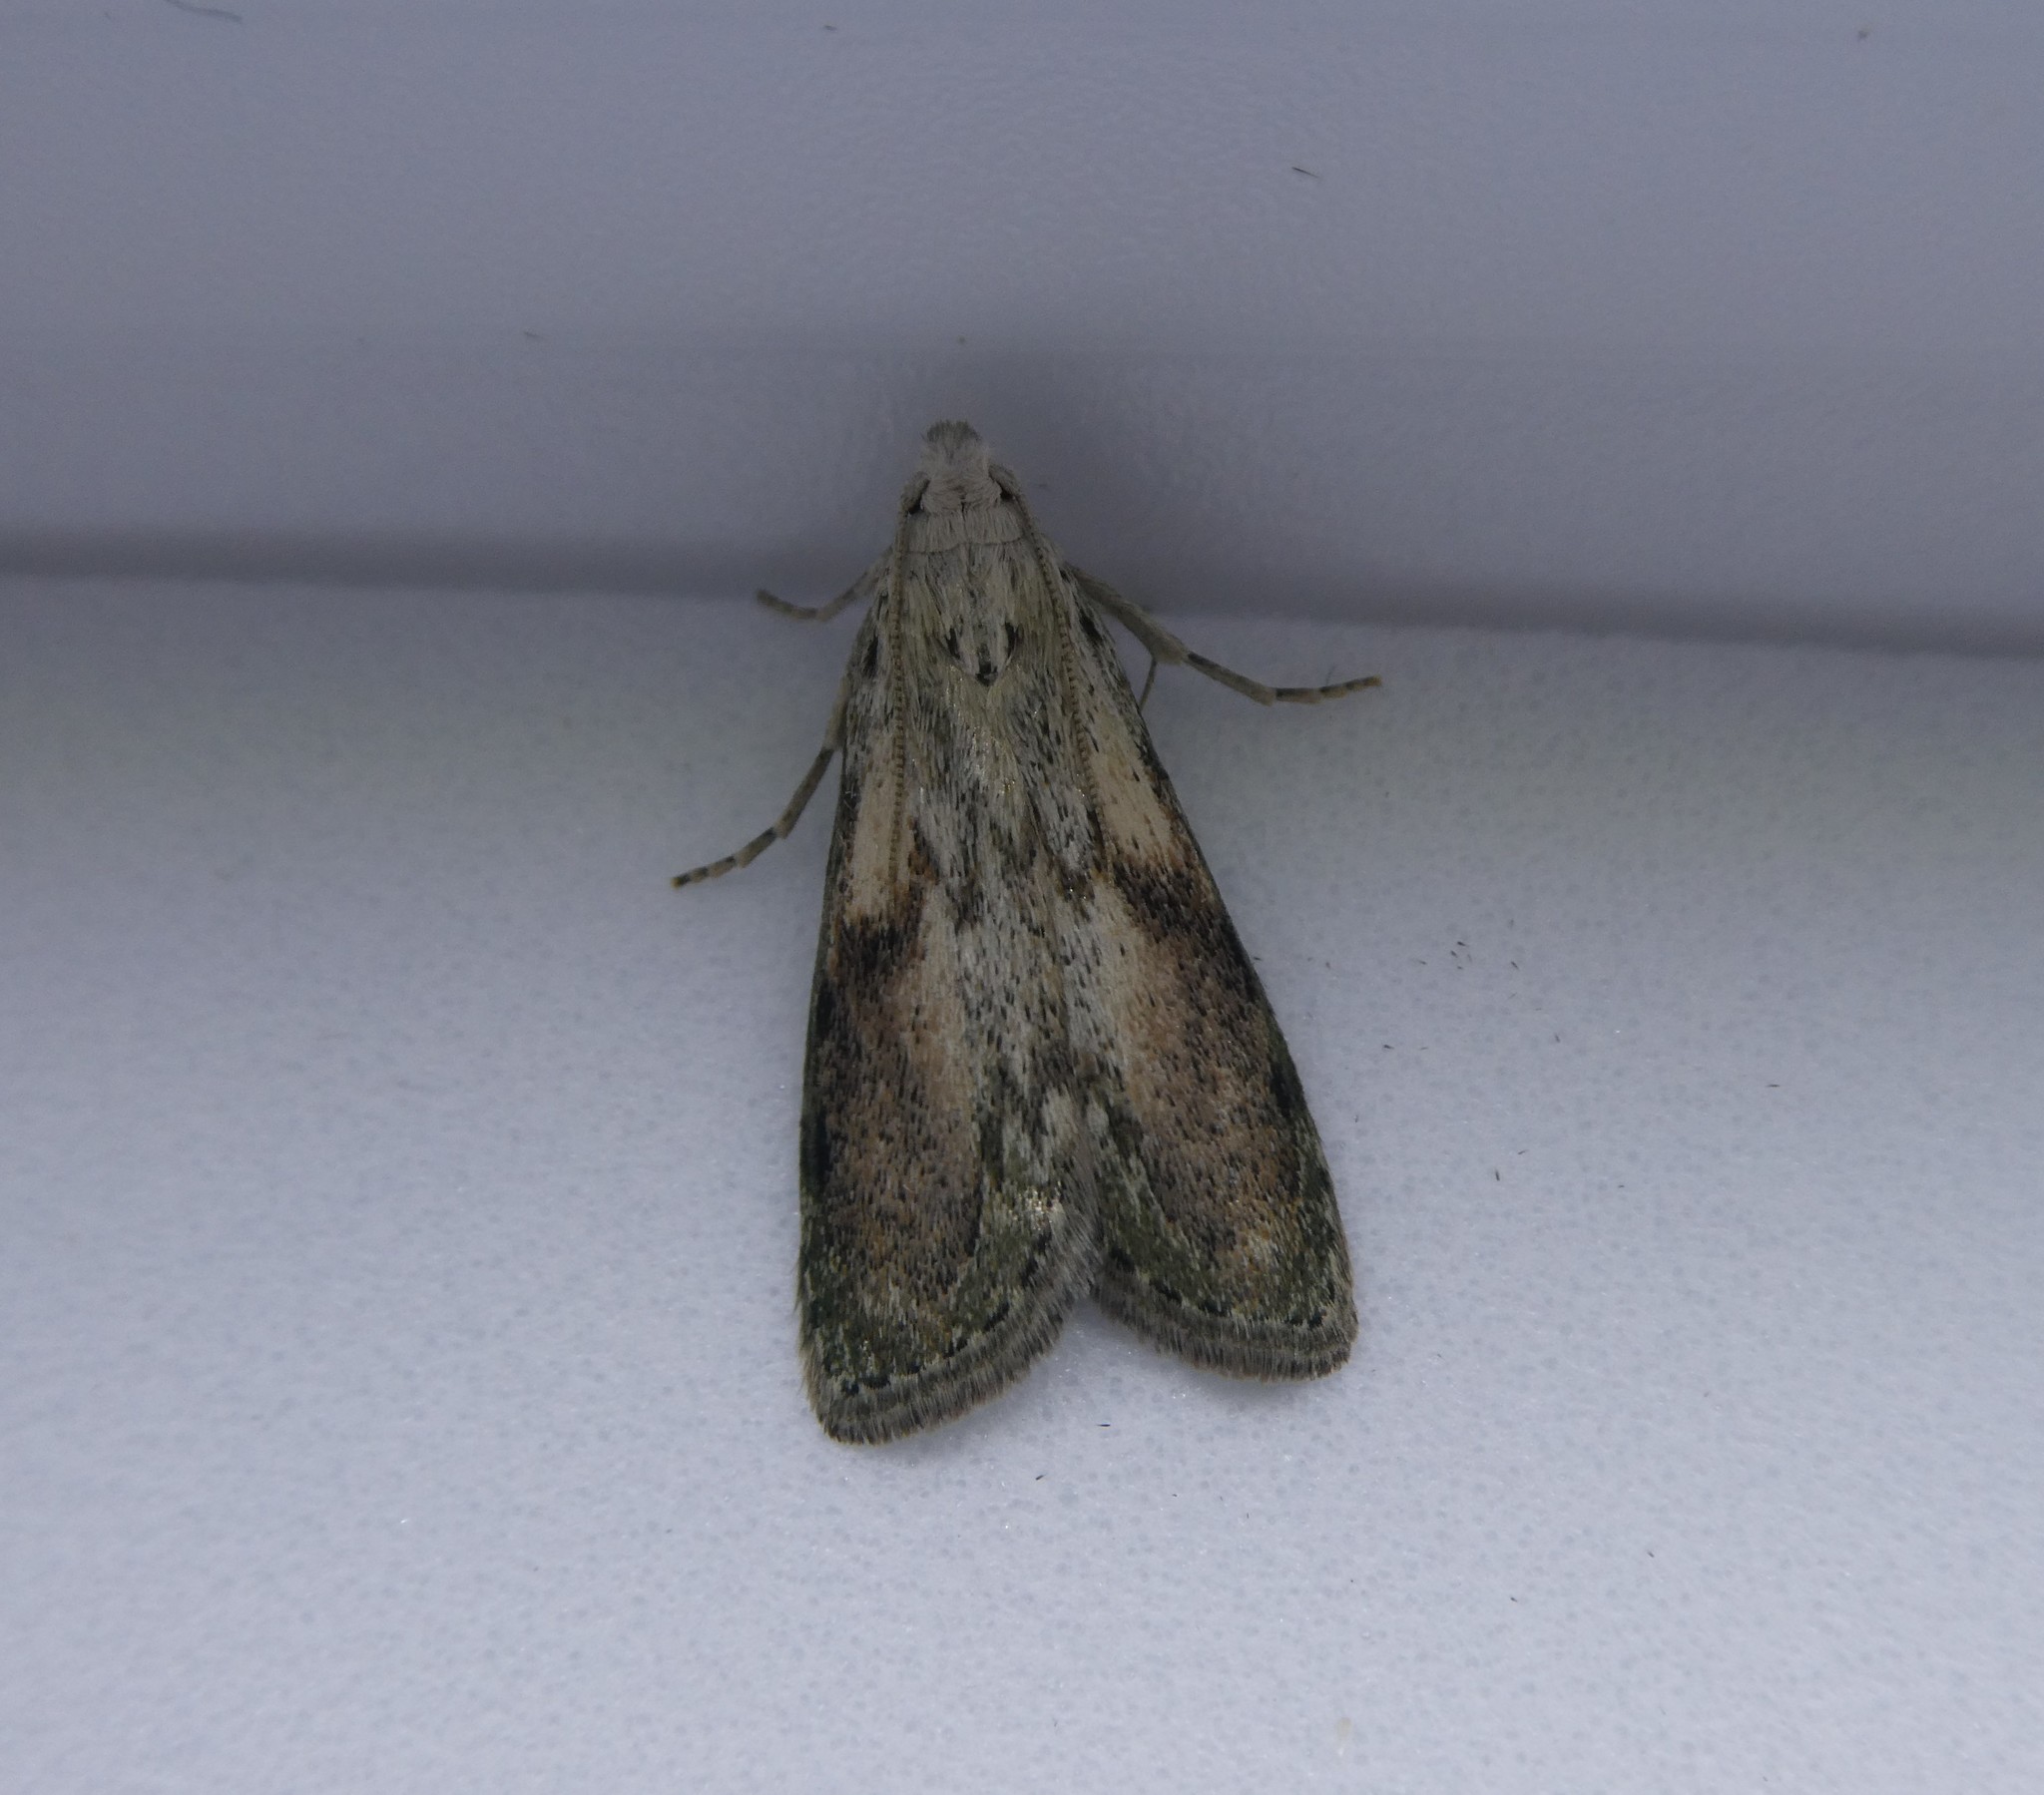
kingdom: Animalia
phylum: Arthropoda
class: Insecta
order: Lepidoptera
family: Pyralidae
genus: Aphomia
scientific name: Aphomia sociella
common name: Bee moth
